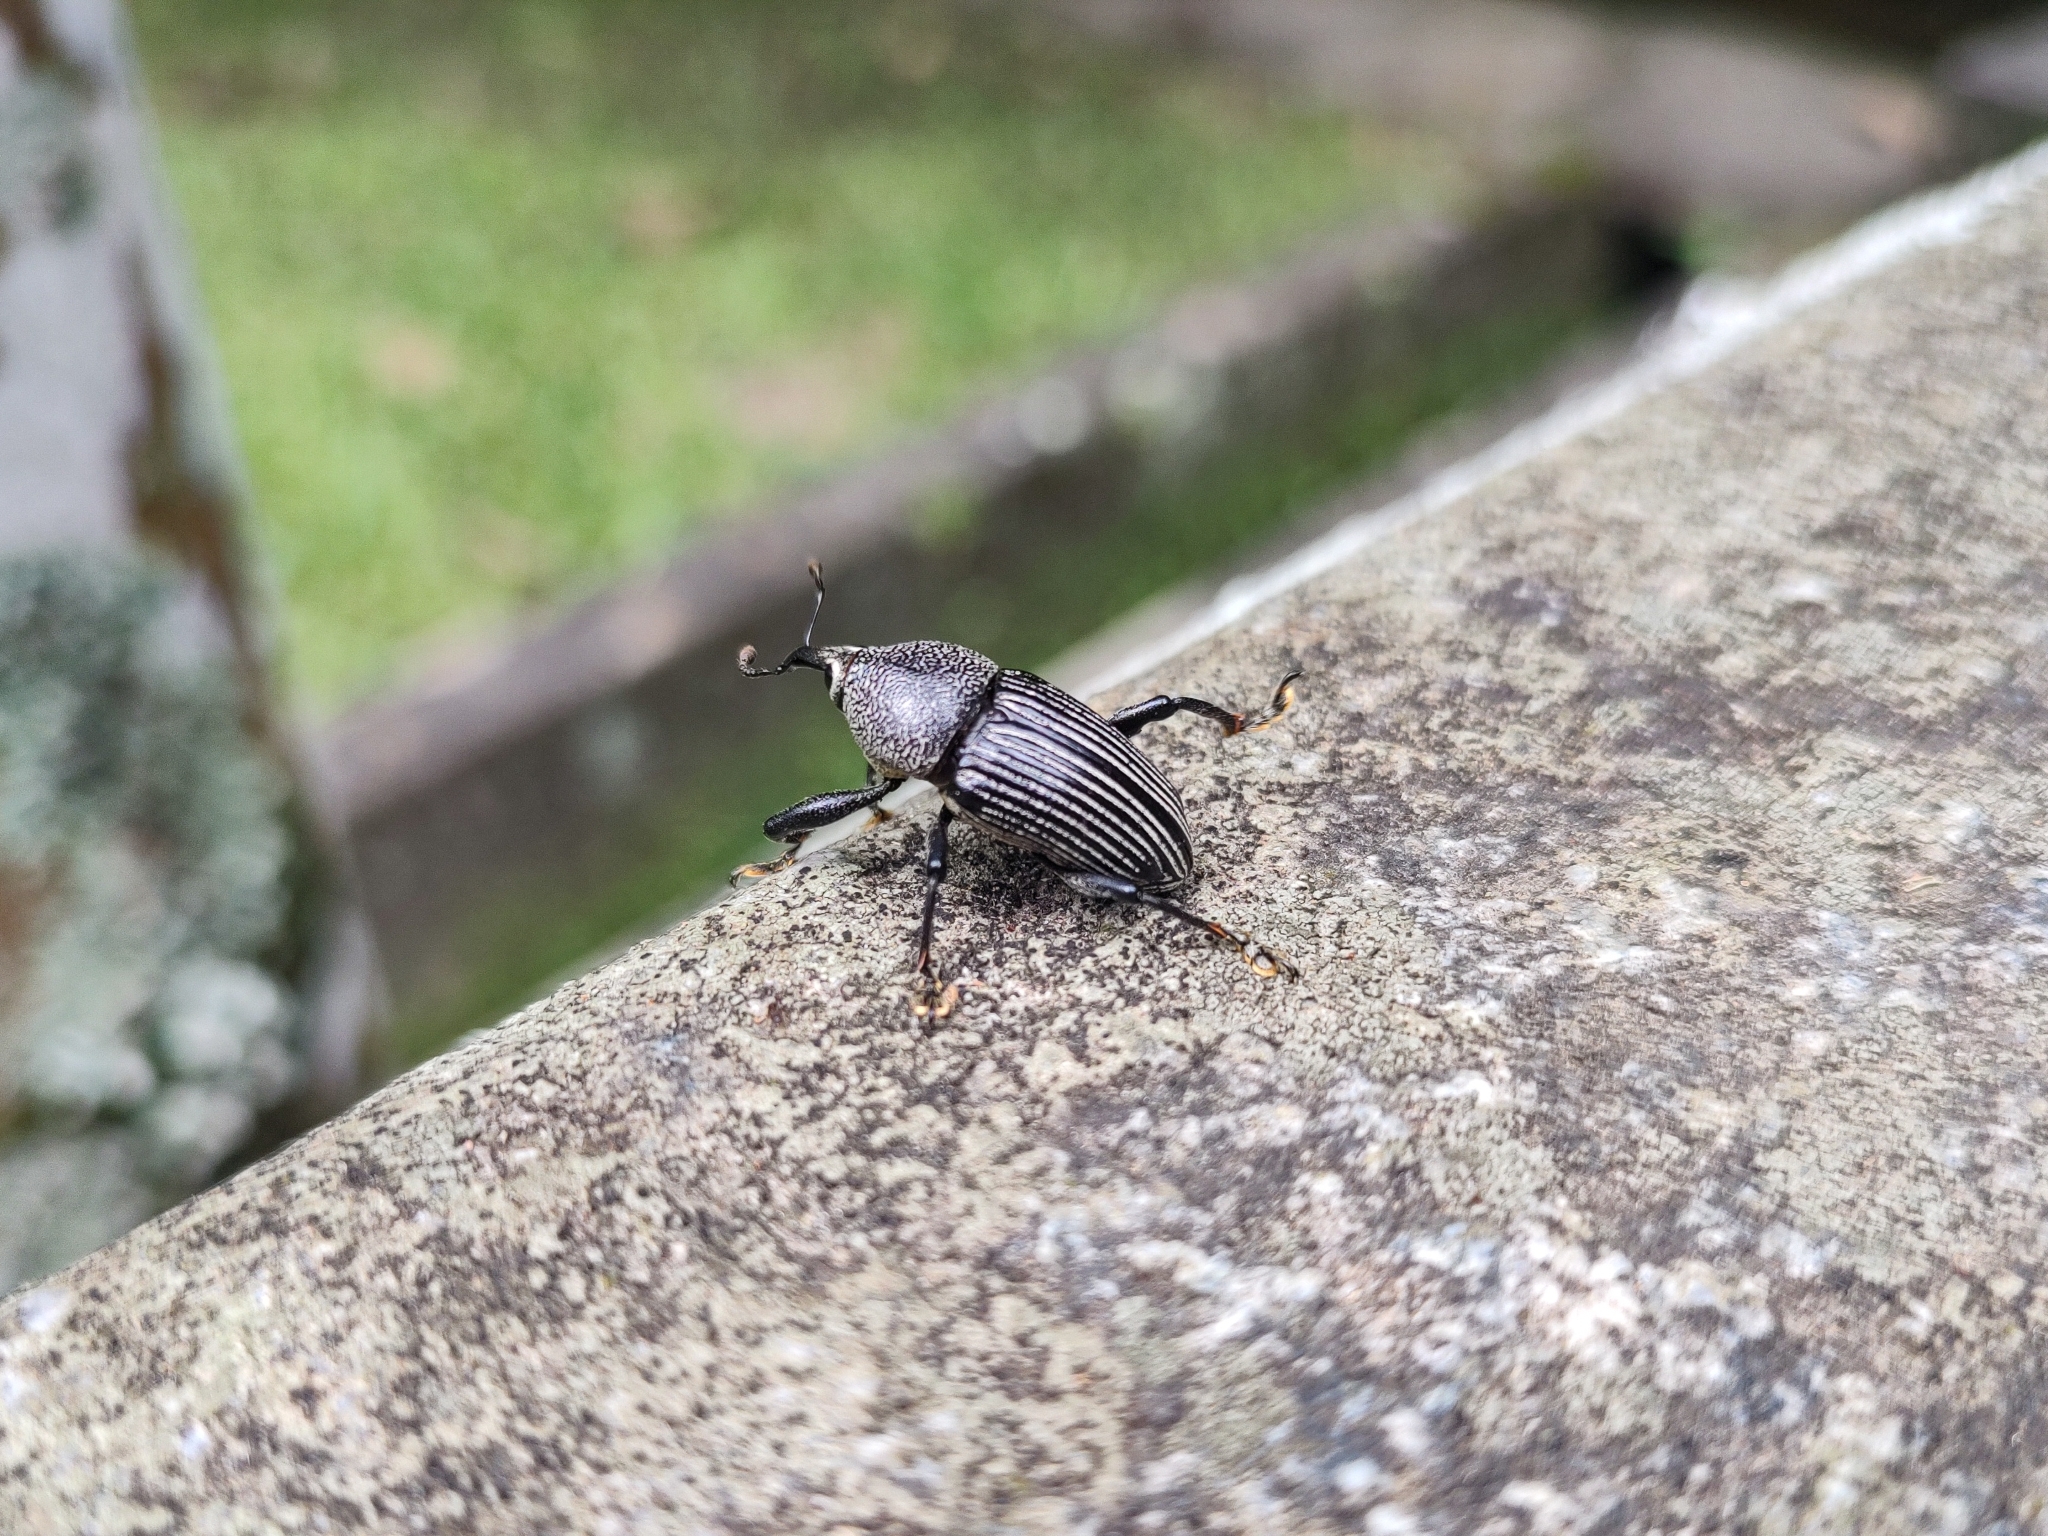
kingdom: Animalia
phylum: Arthropoda
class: Insecta
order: Coleoptera
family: Curculionidae
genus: Cholus
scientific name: Cholus parallelogrammus
